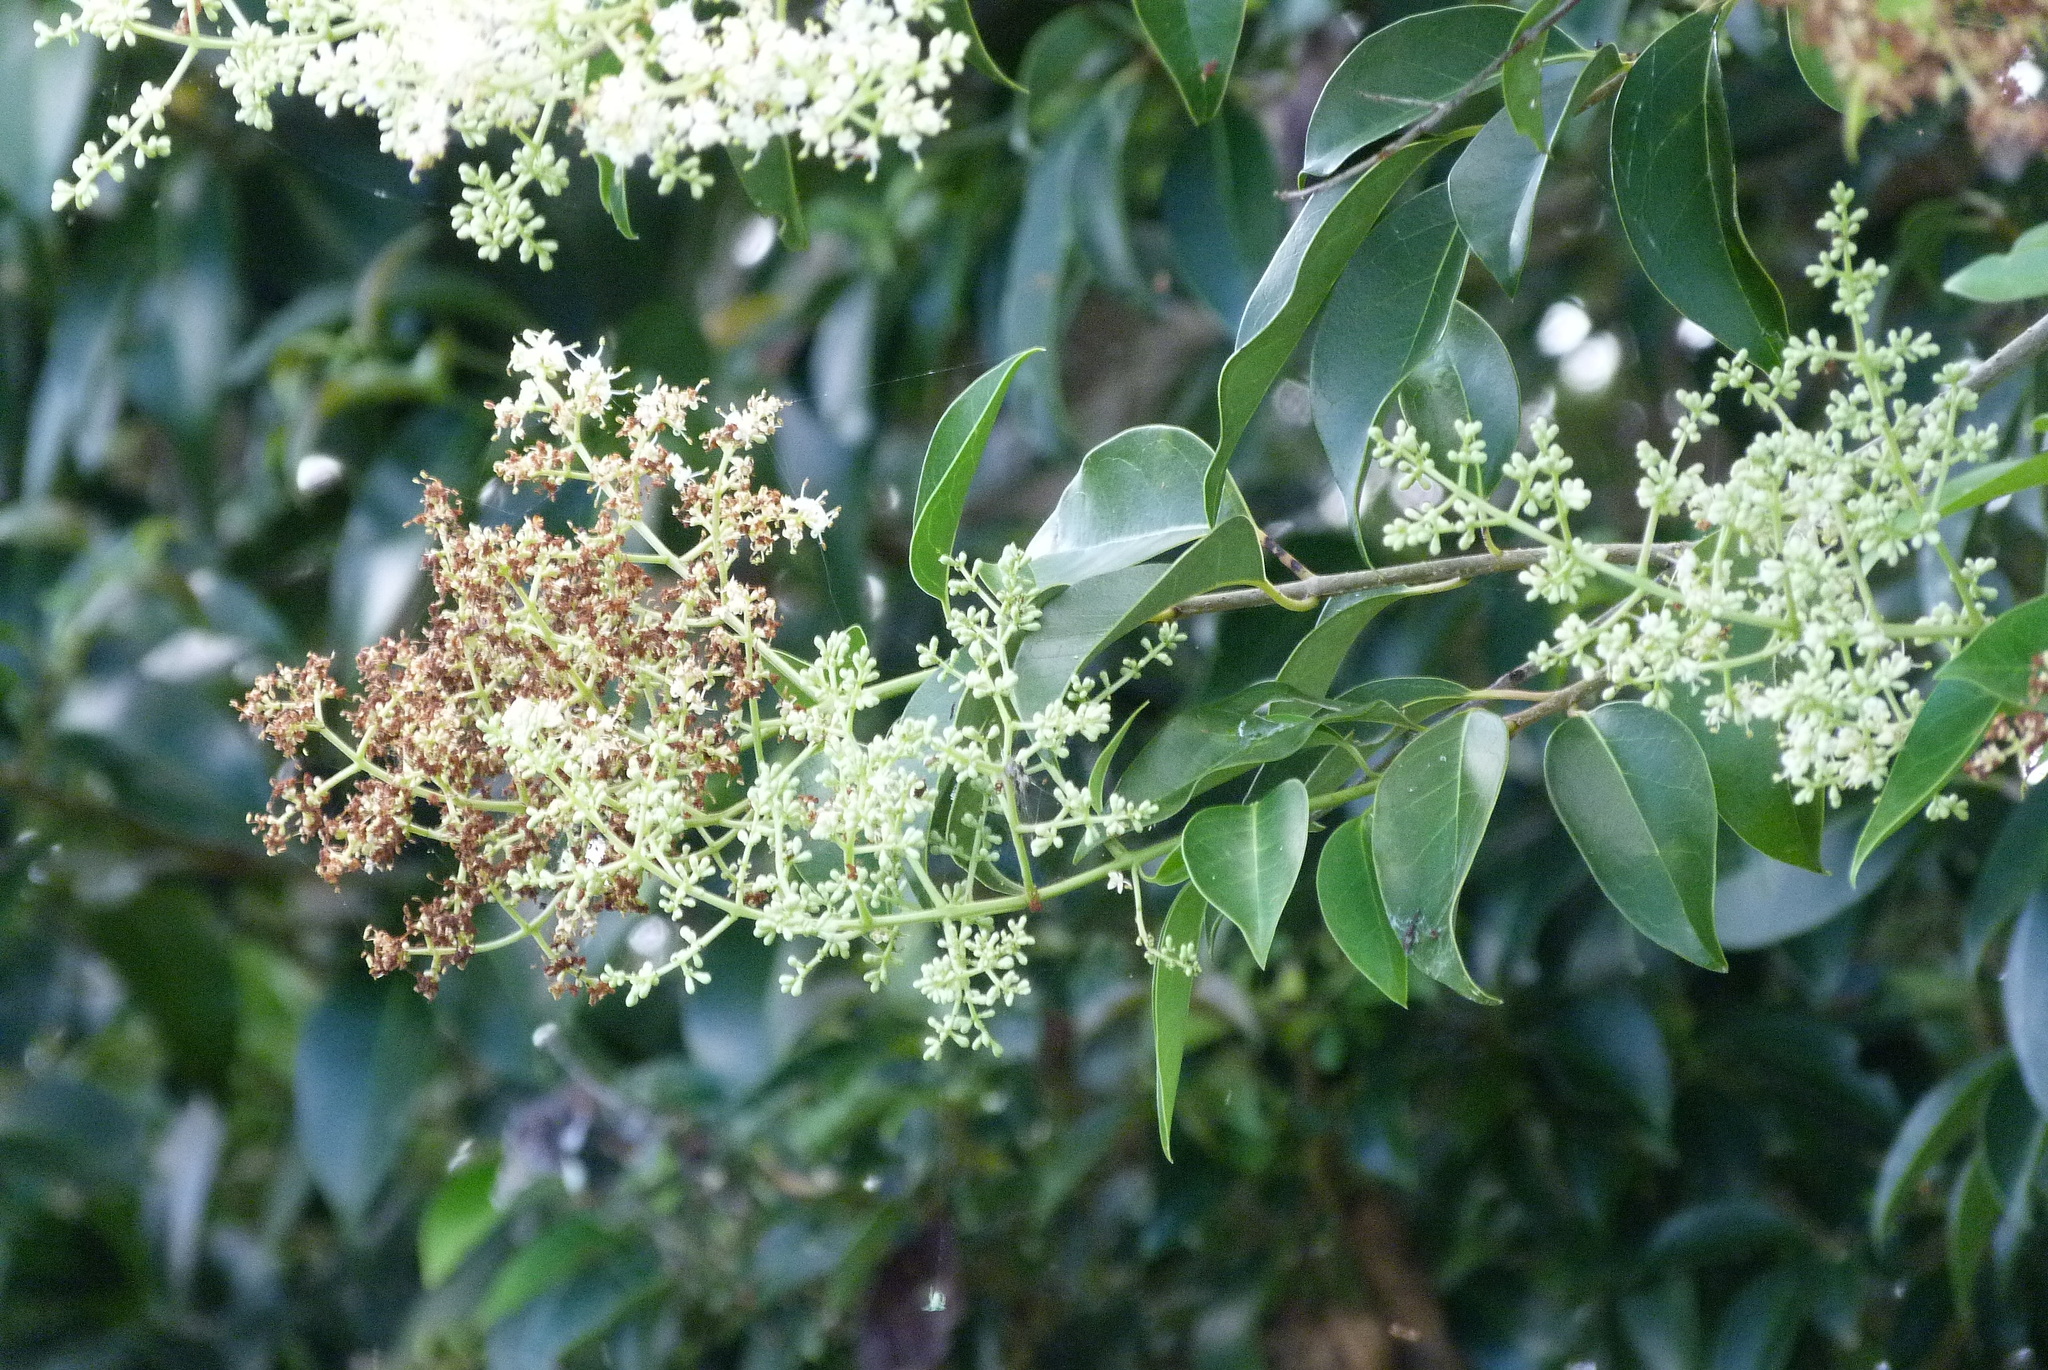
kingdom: Plantae
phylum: Tracheophyta
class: Magnoliopsida
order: Lamiales
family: Oleaceae
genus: Ligustrum
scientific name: Ligustrum lucidum
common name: Glossy privet
